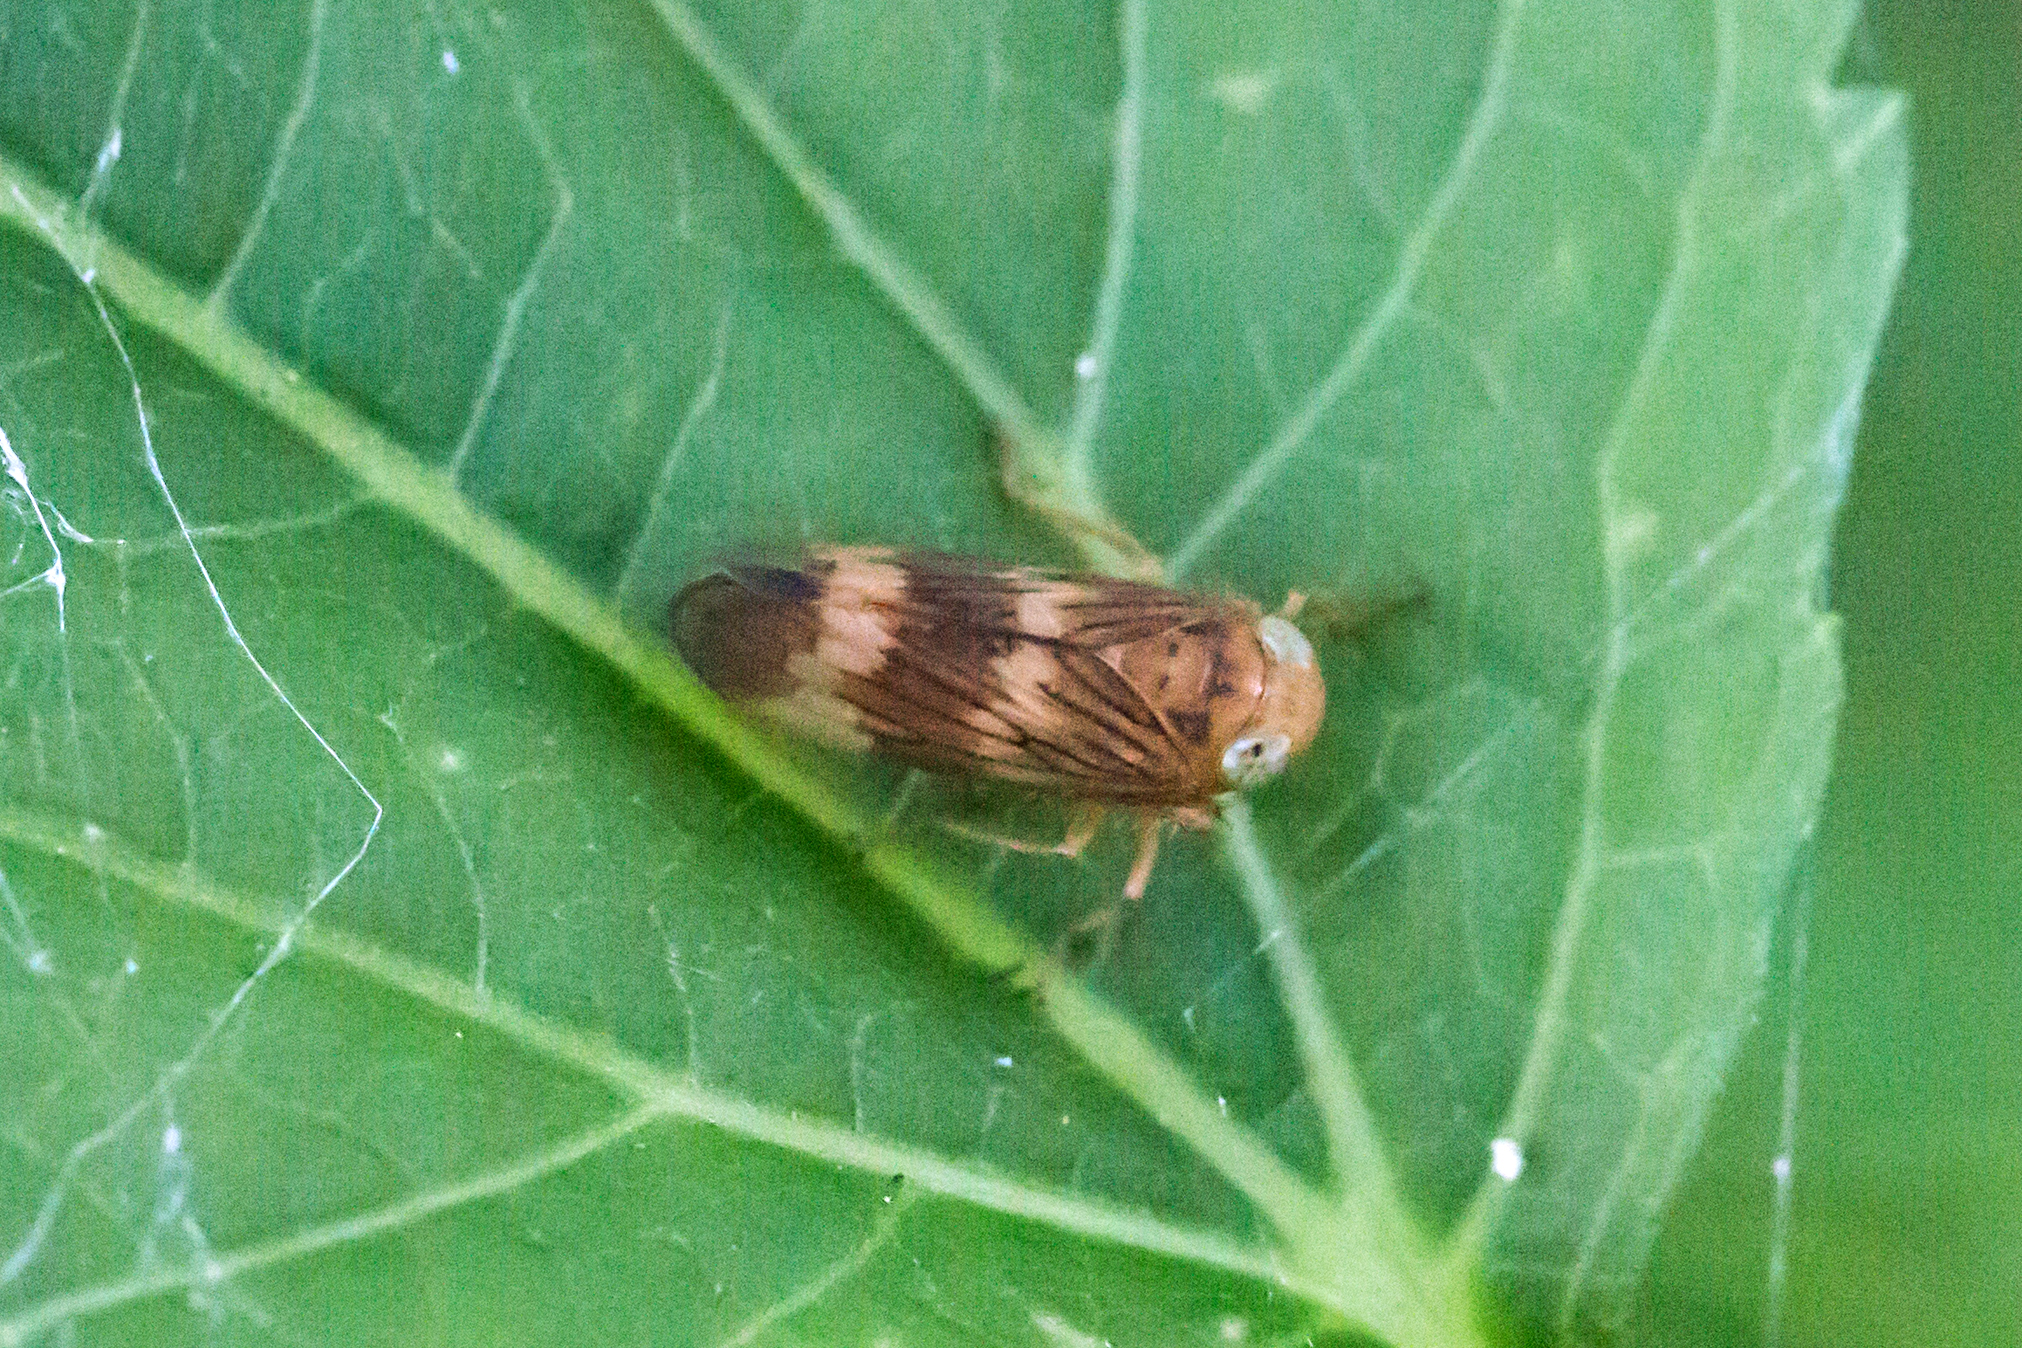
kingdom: Animalia
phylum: Arthropoda
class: Insecta
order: Hemiptera
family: Cicadellidae
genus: Jikradia
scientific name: Jikradia olitoria
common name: Coppery leafhopper
